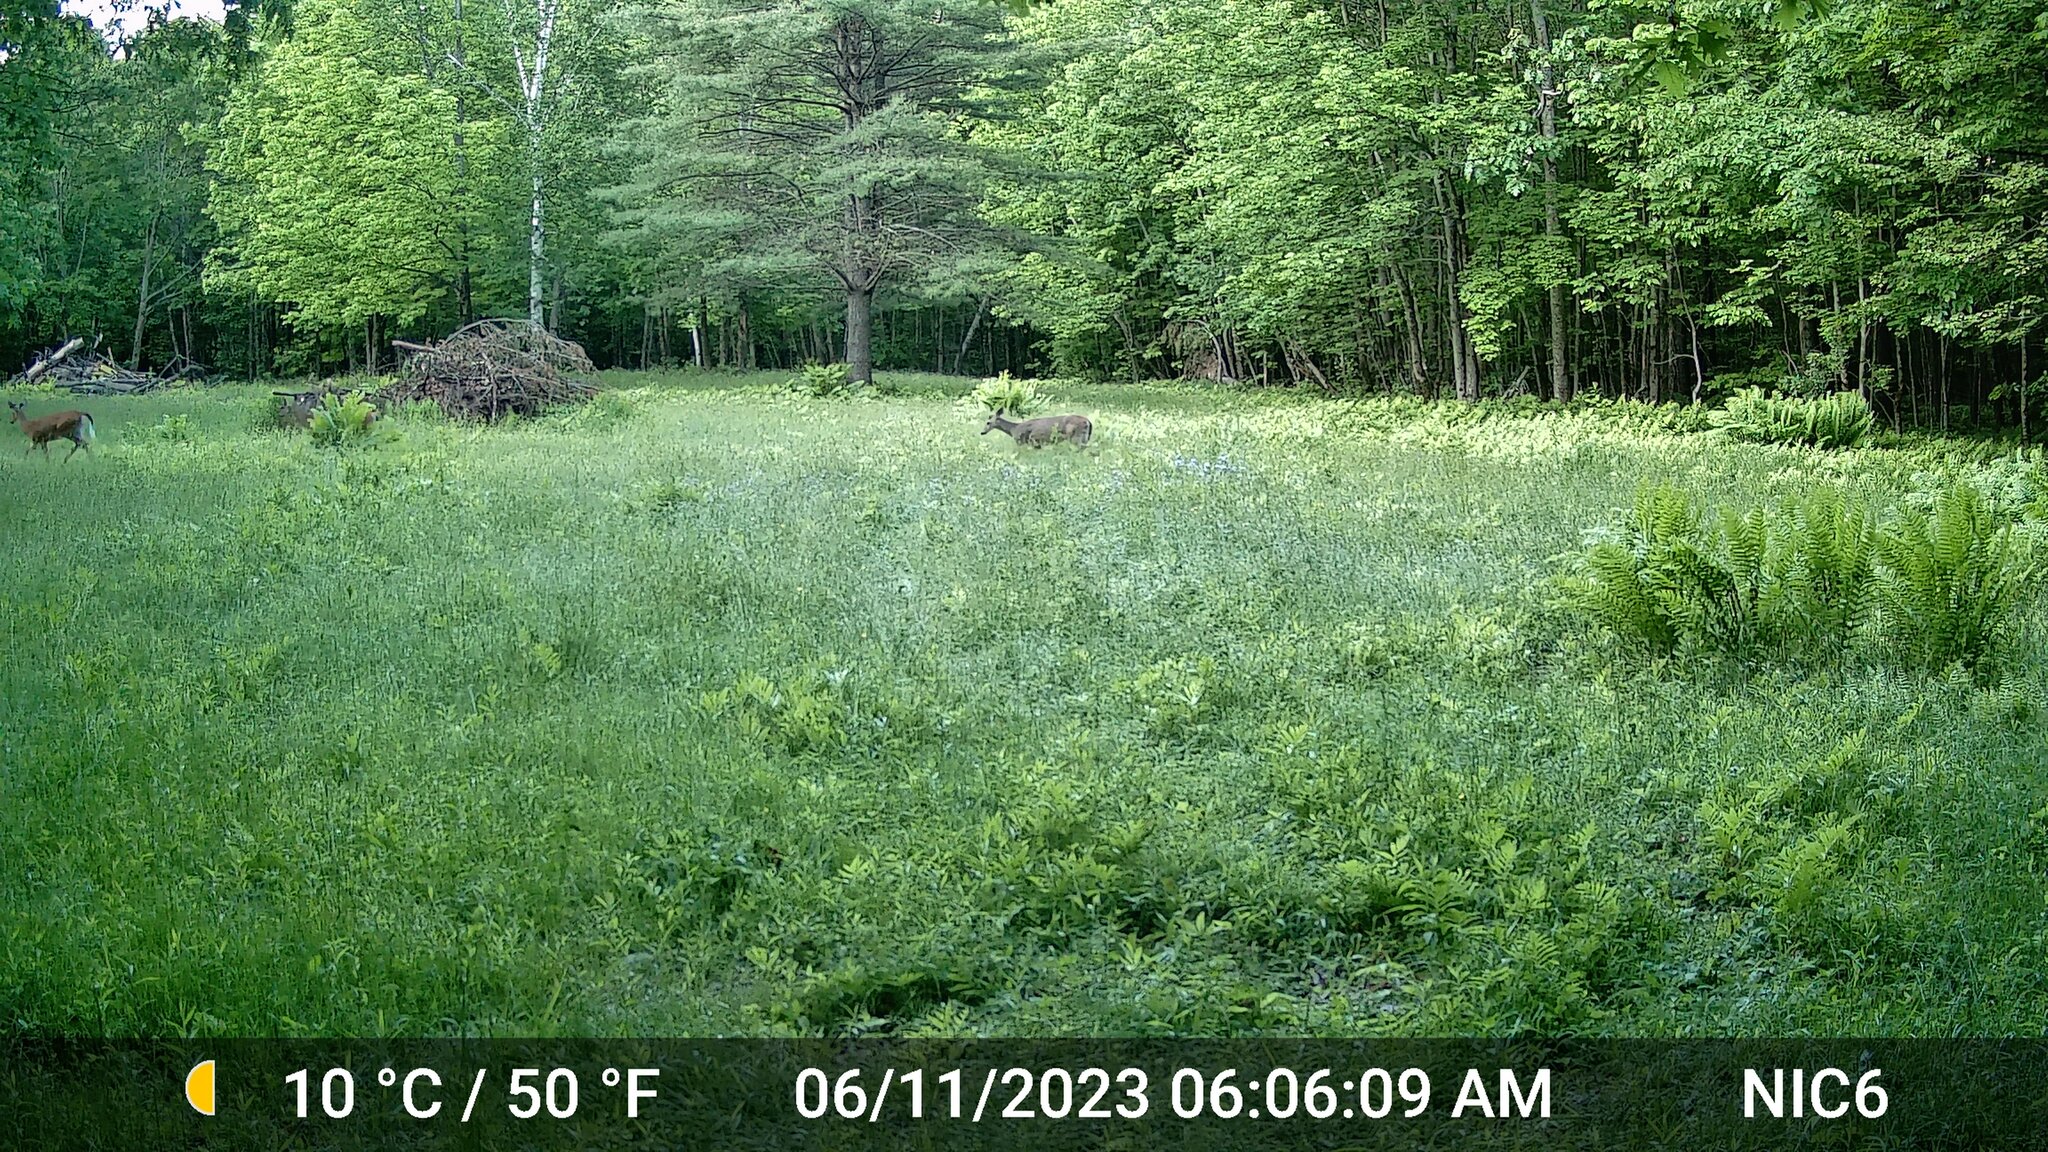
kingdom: Animalia
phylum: Chordata
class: Mammalia
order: Artiodactyla
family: Cervidae
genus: Odocoileus
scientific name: Odocoileus virginianus
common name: White-tailed deer
